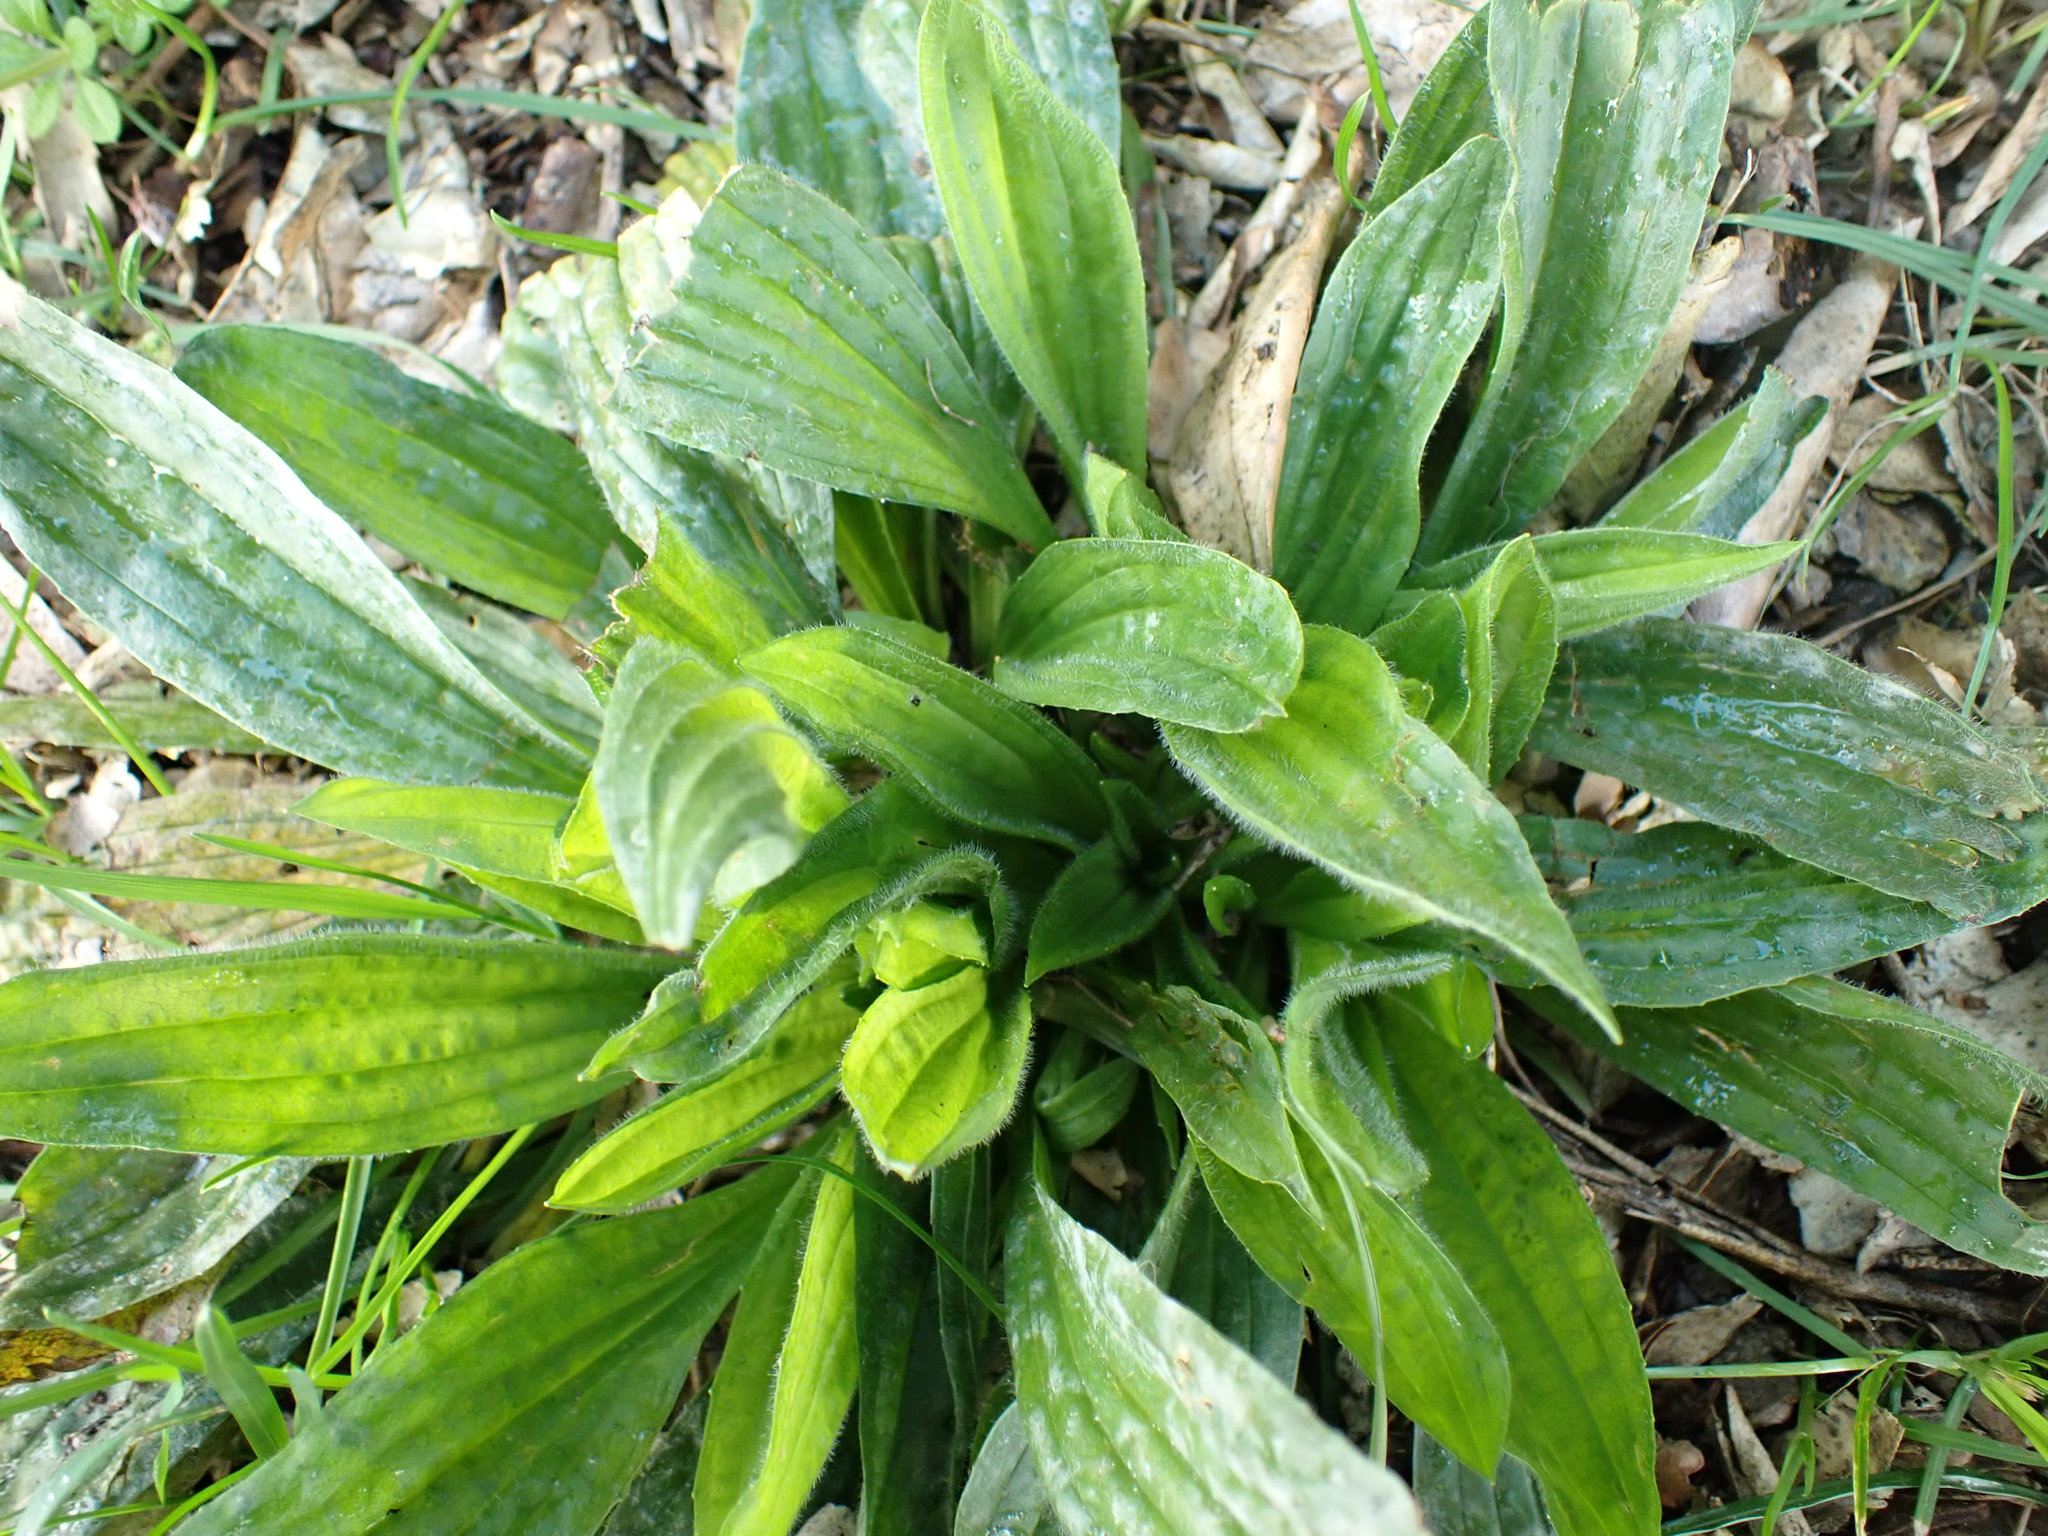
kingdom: Plantae
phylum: Tracheophyta
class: Magnoliopsida
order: Lamiales
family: Plantaginaceae
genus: Plantago
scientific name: Plantago lanceolata
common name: Ribwort plantain
